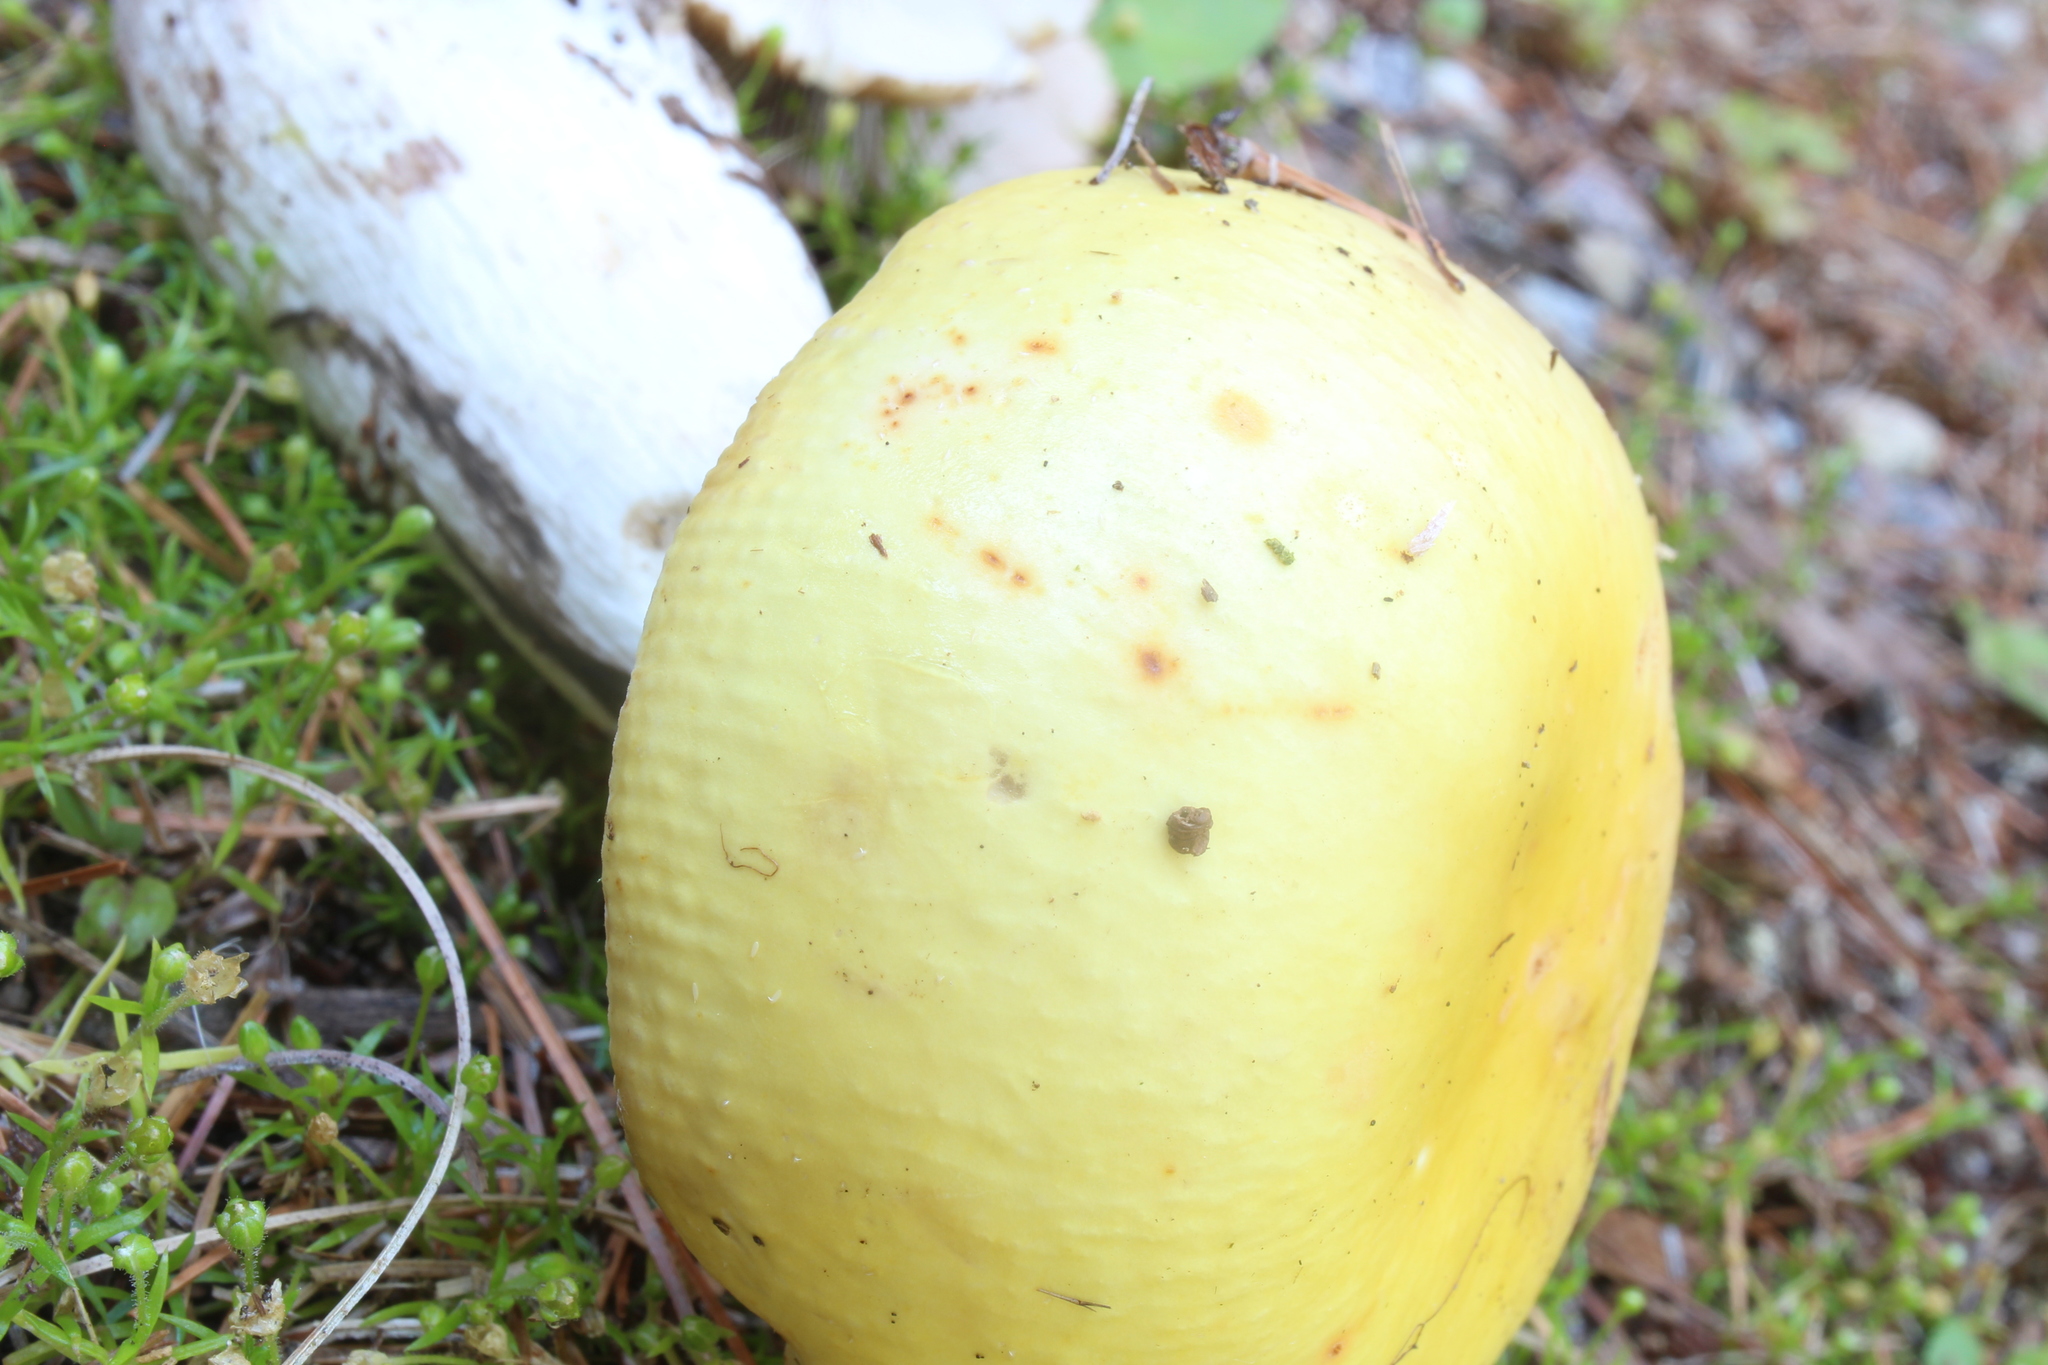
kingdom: Fungi
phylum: Basidiomycota
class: Agaricomycetes
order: Russulales
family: Russulaceae
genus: Russula
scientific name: Russula ochroleucoides
